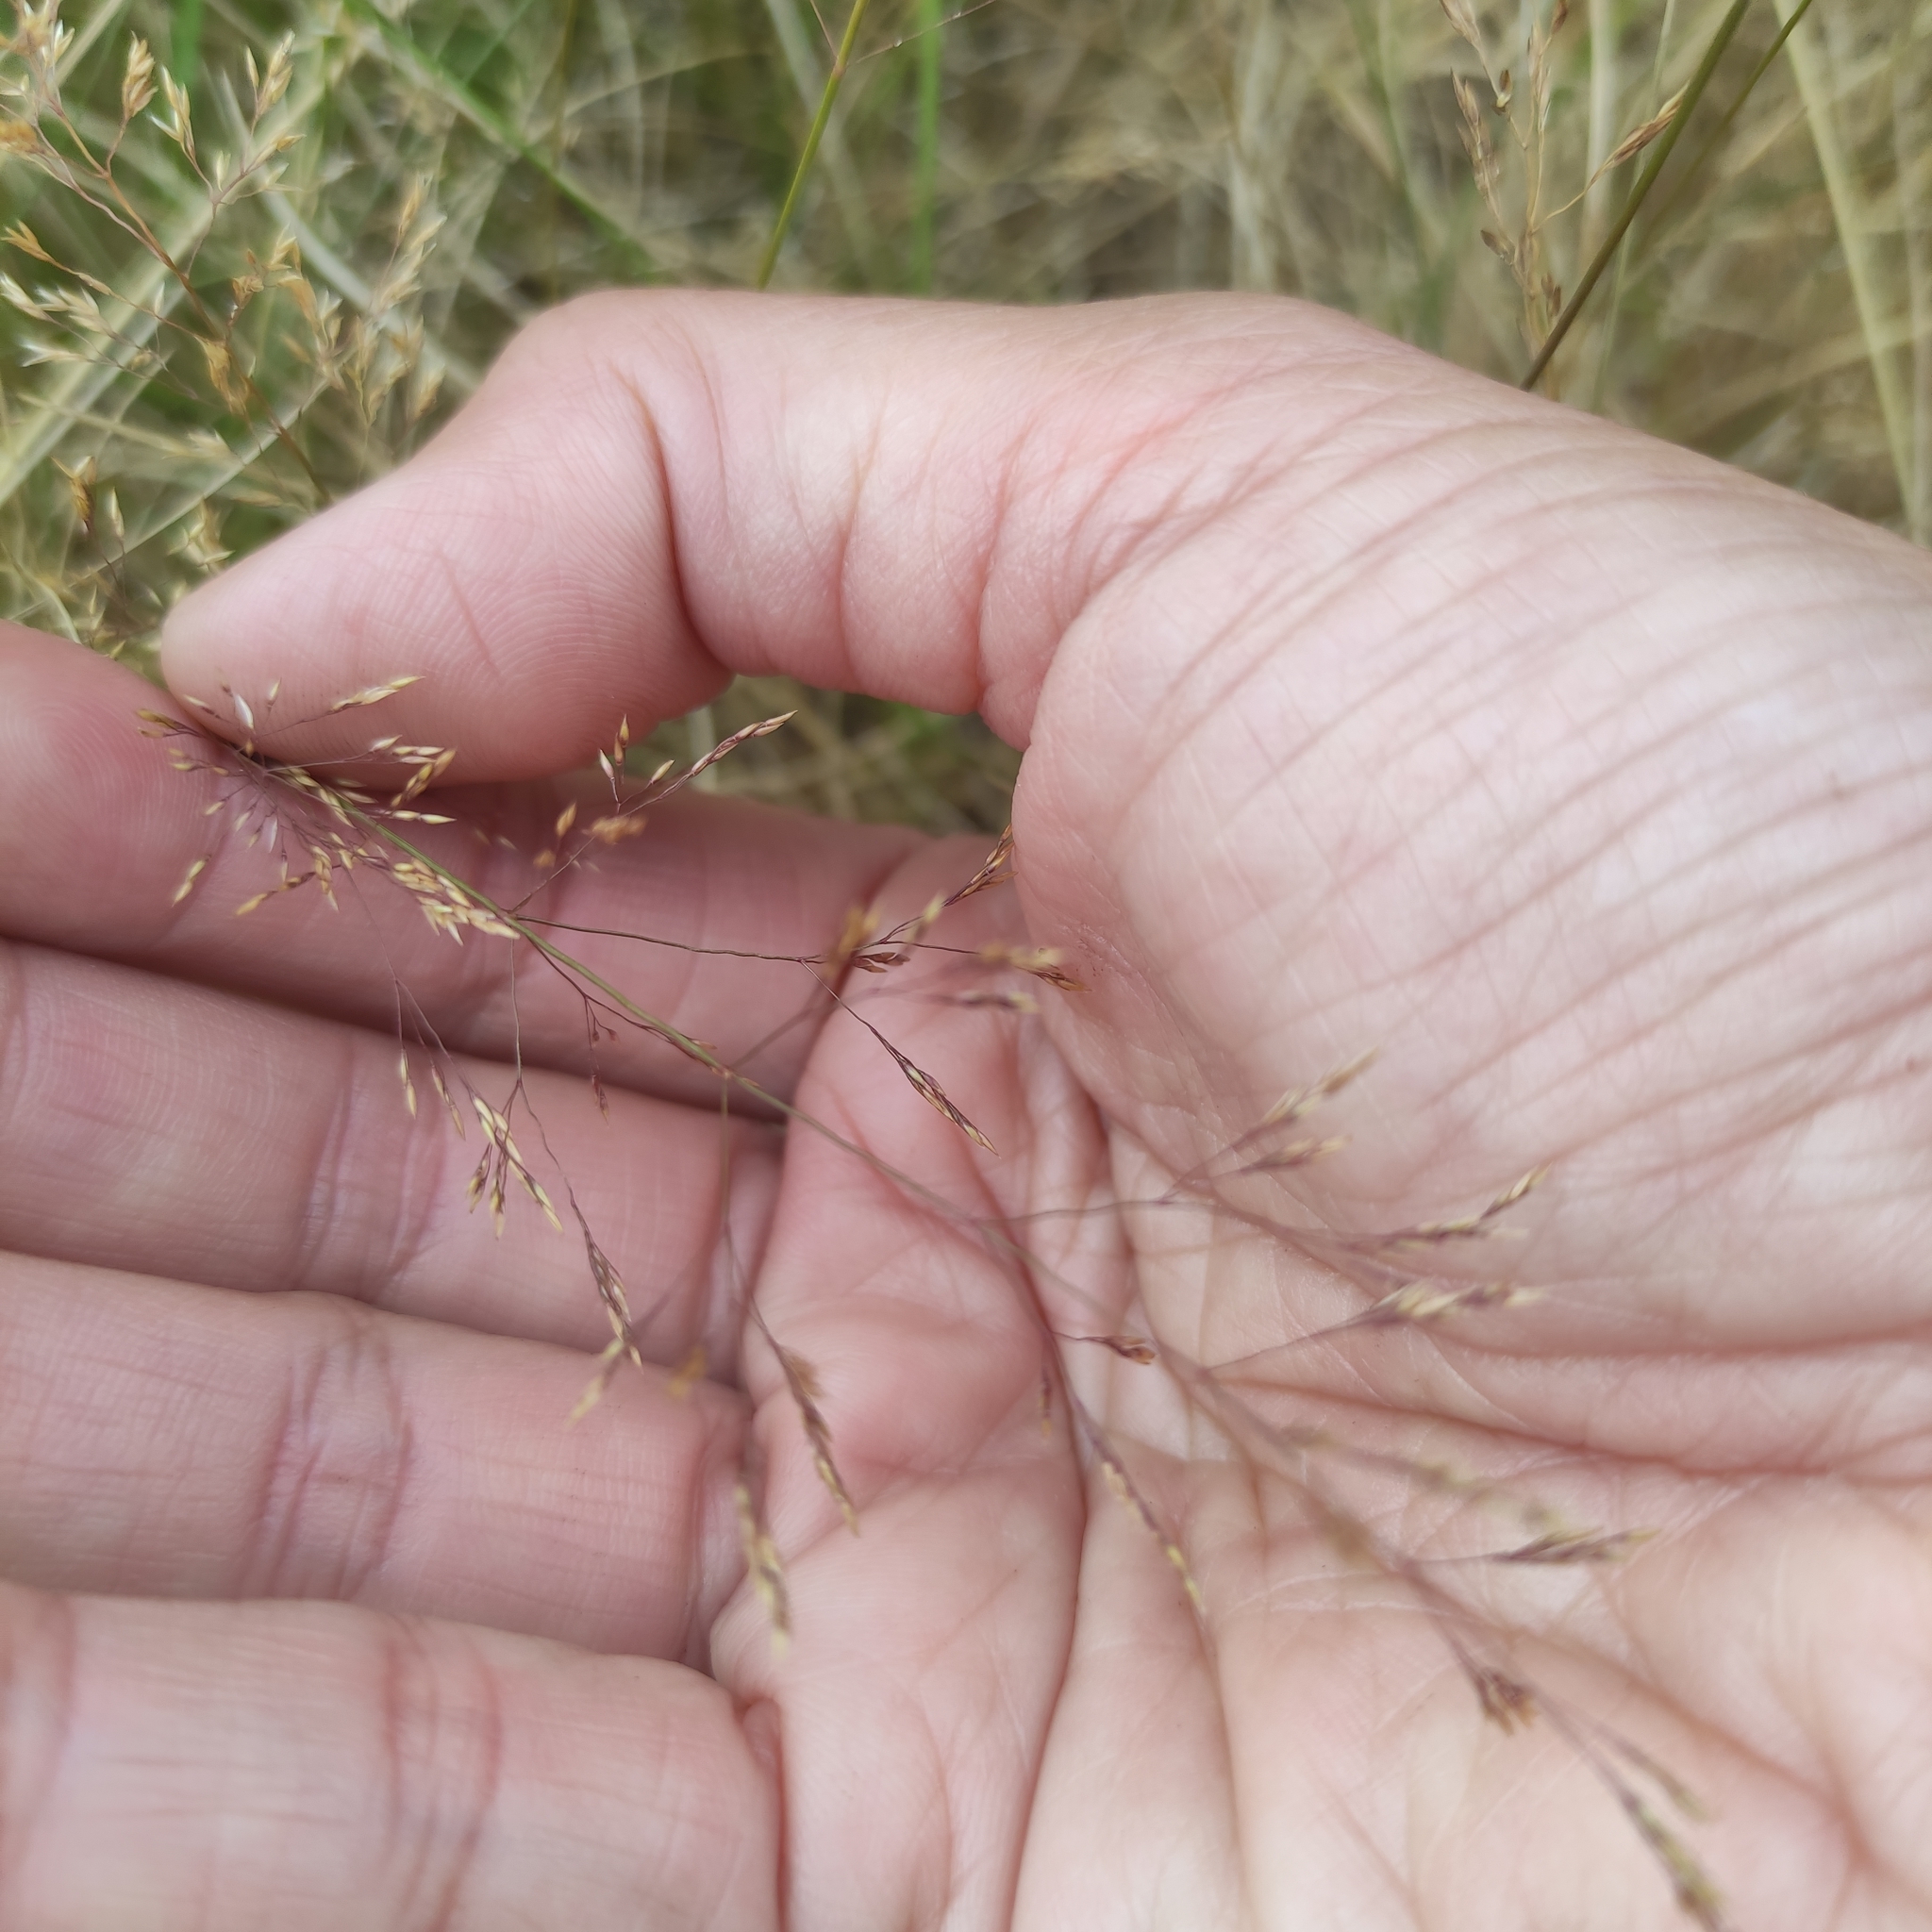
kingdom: Plantae
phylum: Tracheophyta
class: Liliopsida
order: Poales
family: Poaceae
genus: Agrostis
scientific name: Agrostis capillaris
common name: Colonial bentgrass
